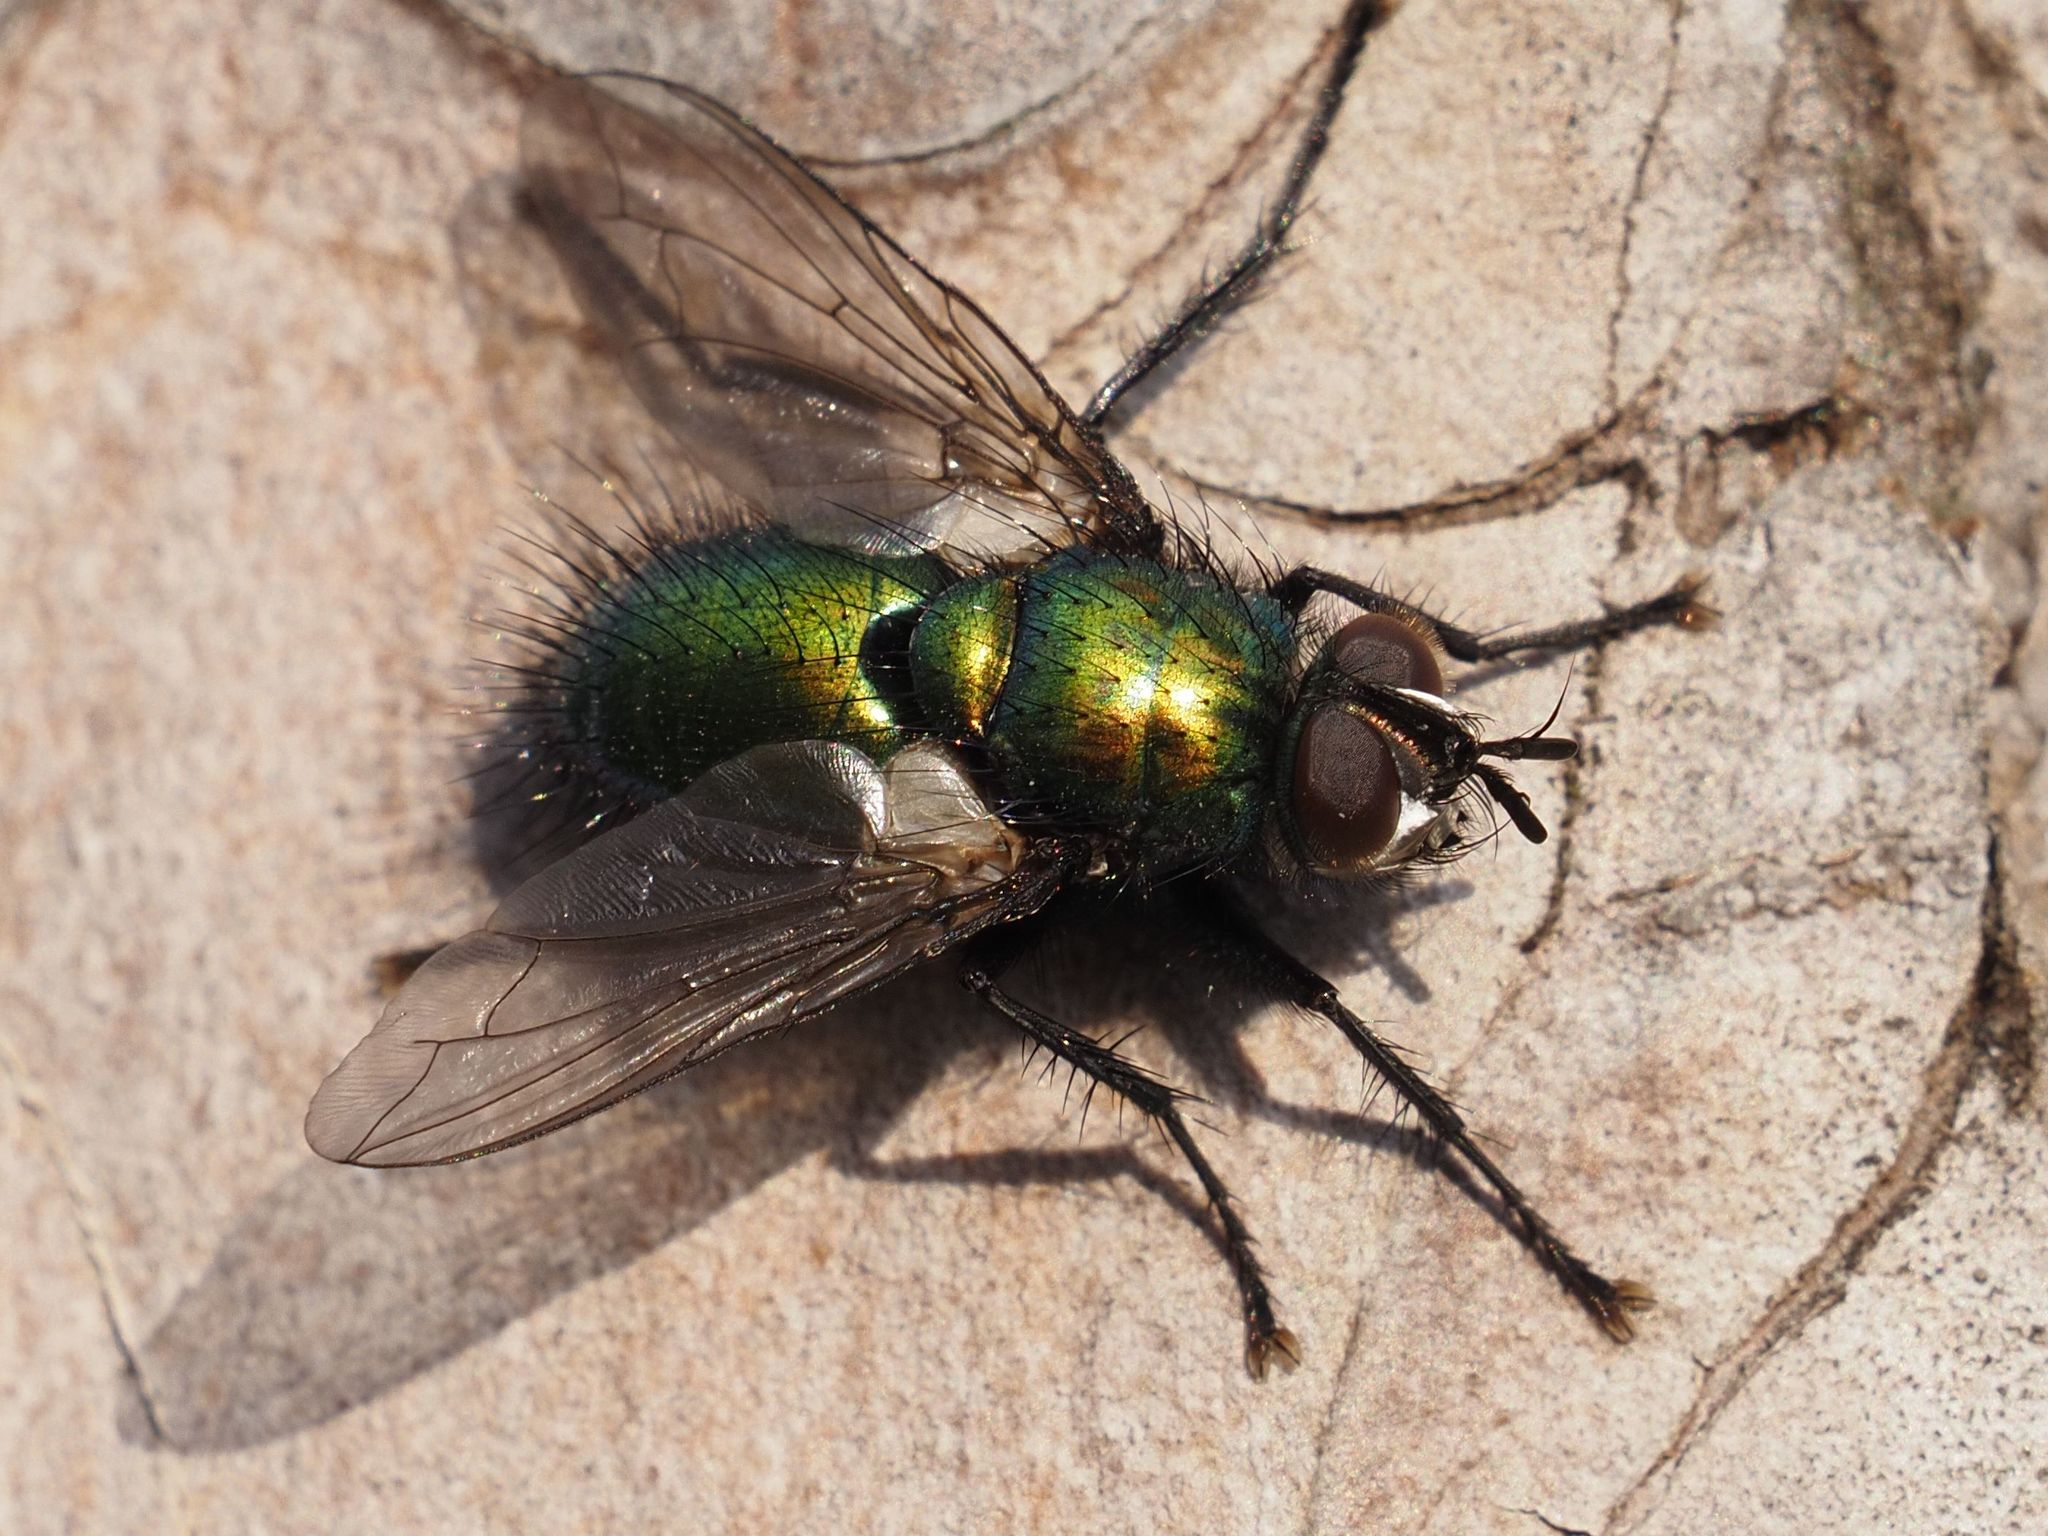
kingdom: Animalia
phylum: Arthropoda
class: Insecta
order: Diptera
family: Tachinidae
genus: Gymnocheta
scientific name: Gymnocheta viridis
